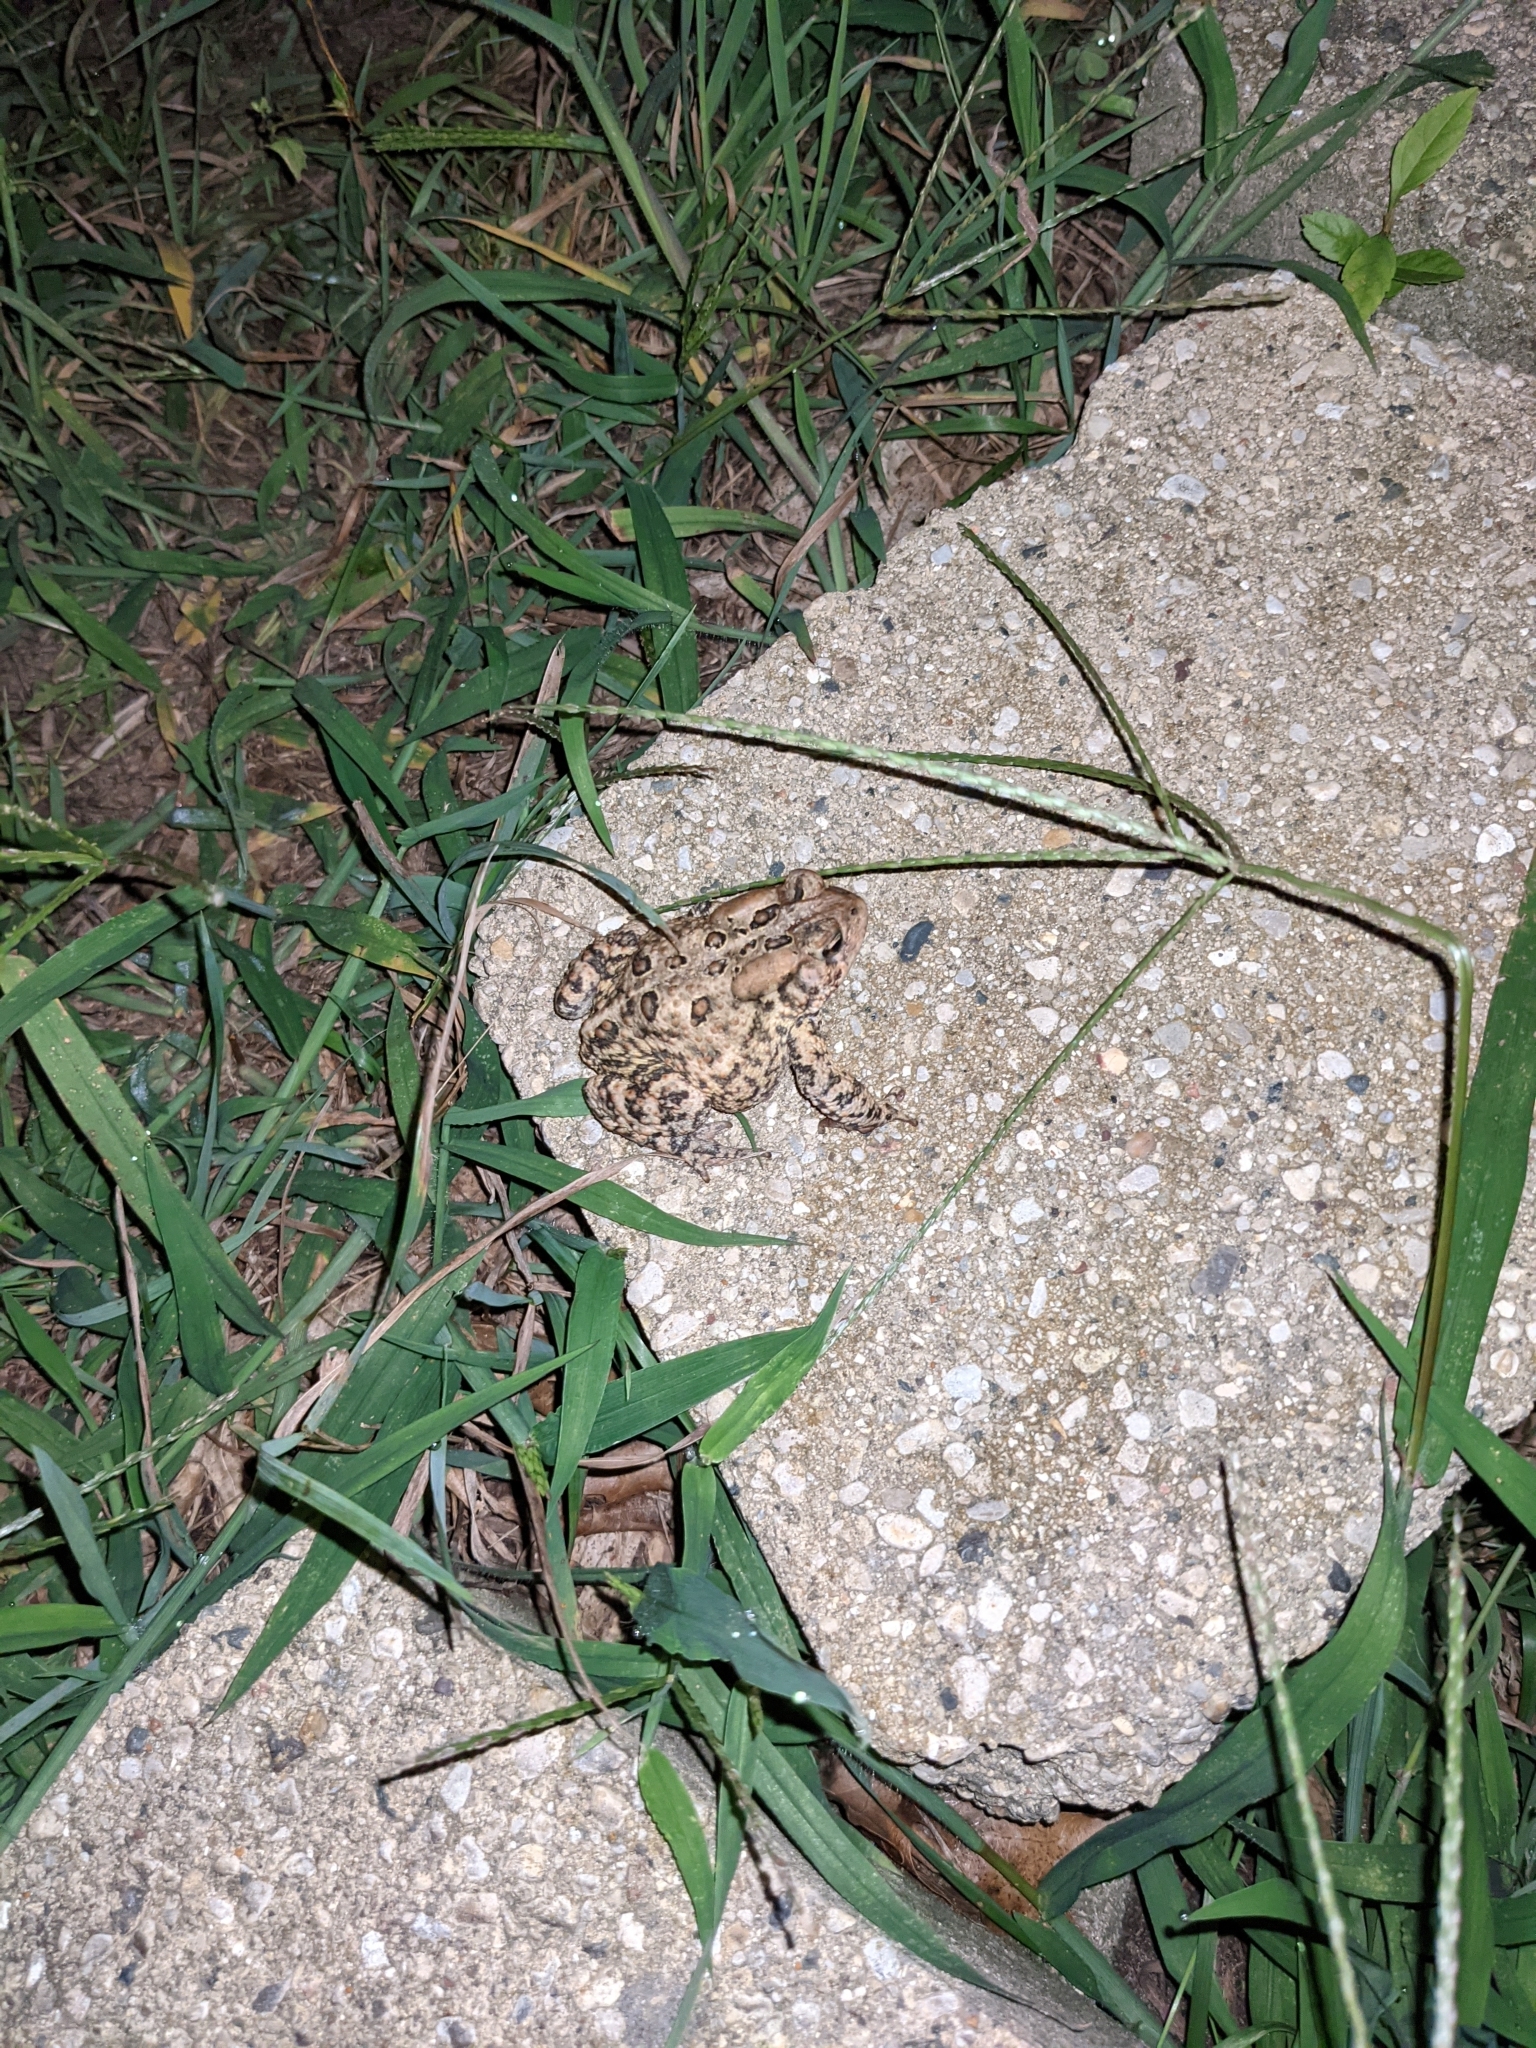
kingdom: Animalia
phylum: Chordata
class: Amphibia
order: Anura
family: Bufonidae
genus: Anaxyrus
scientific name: Anaxyrus americanus
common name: American toad
